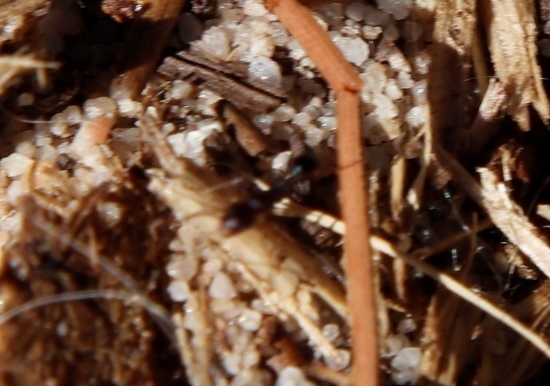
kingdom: Animalia
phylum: Arthropoda
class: Insecta
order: Hymenoptera
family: Formicidae
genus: Tetramorium
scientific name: Tetramorium sericeiventre
